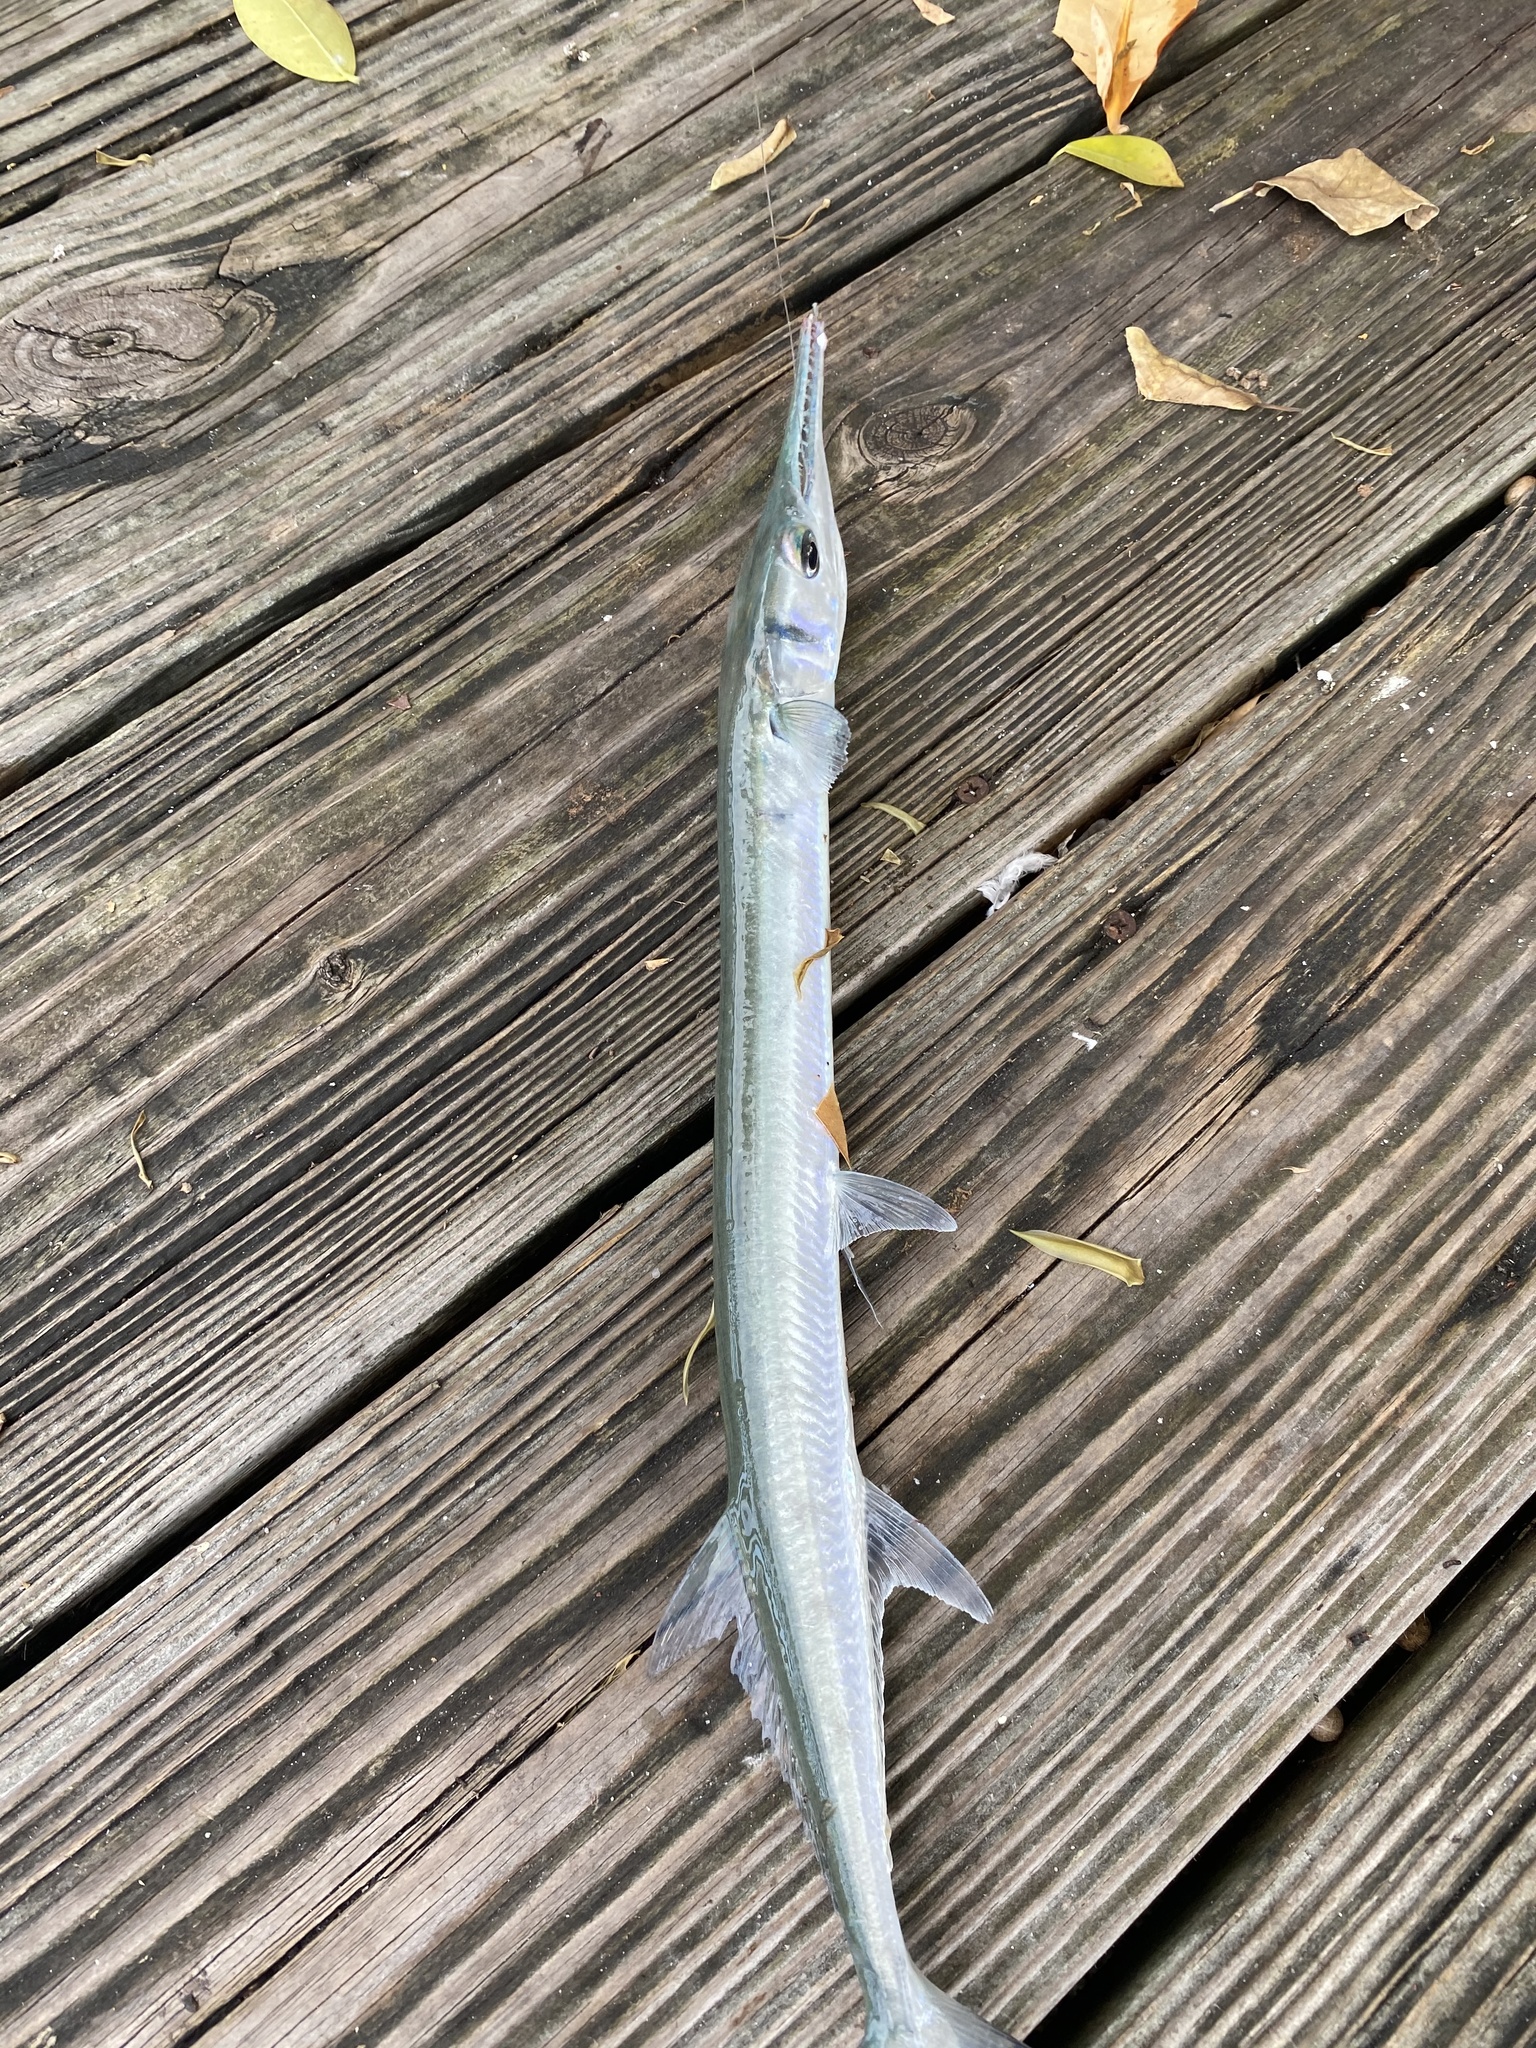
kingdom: Animalia
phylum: Chordata
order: Beloniformes
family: Belonidae
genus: Tylosurus
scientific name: Tylosurus crocodilus
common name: Houndfish
